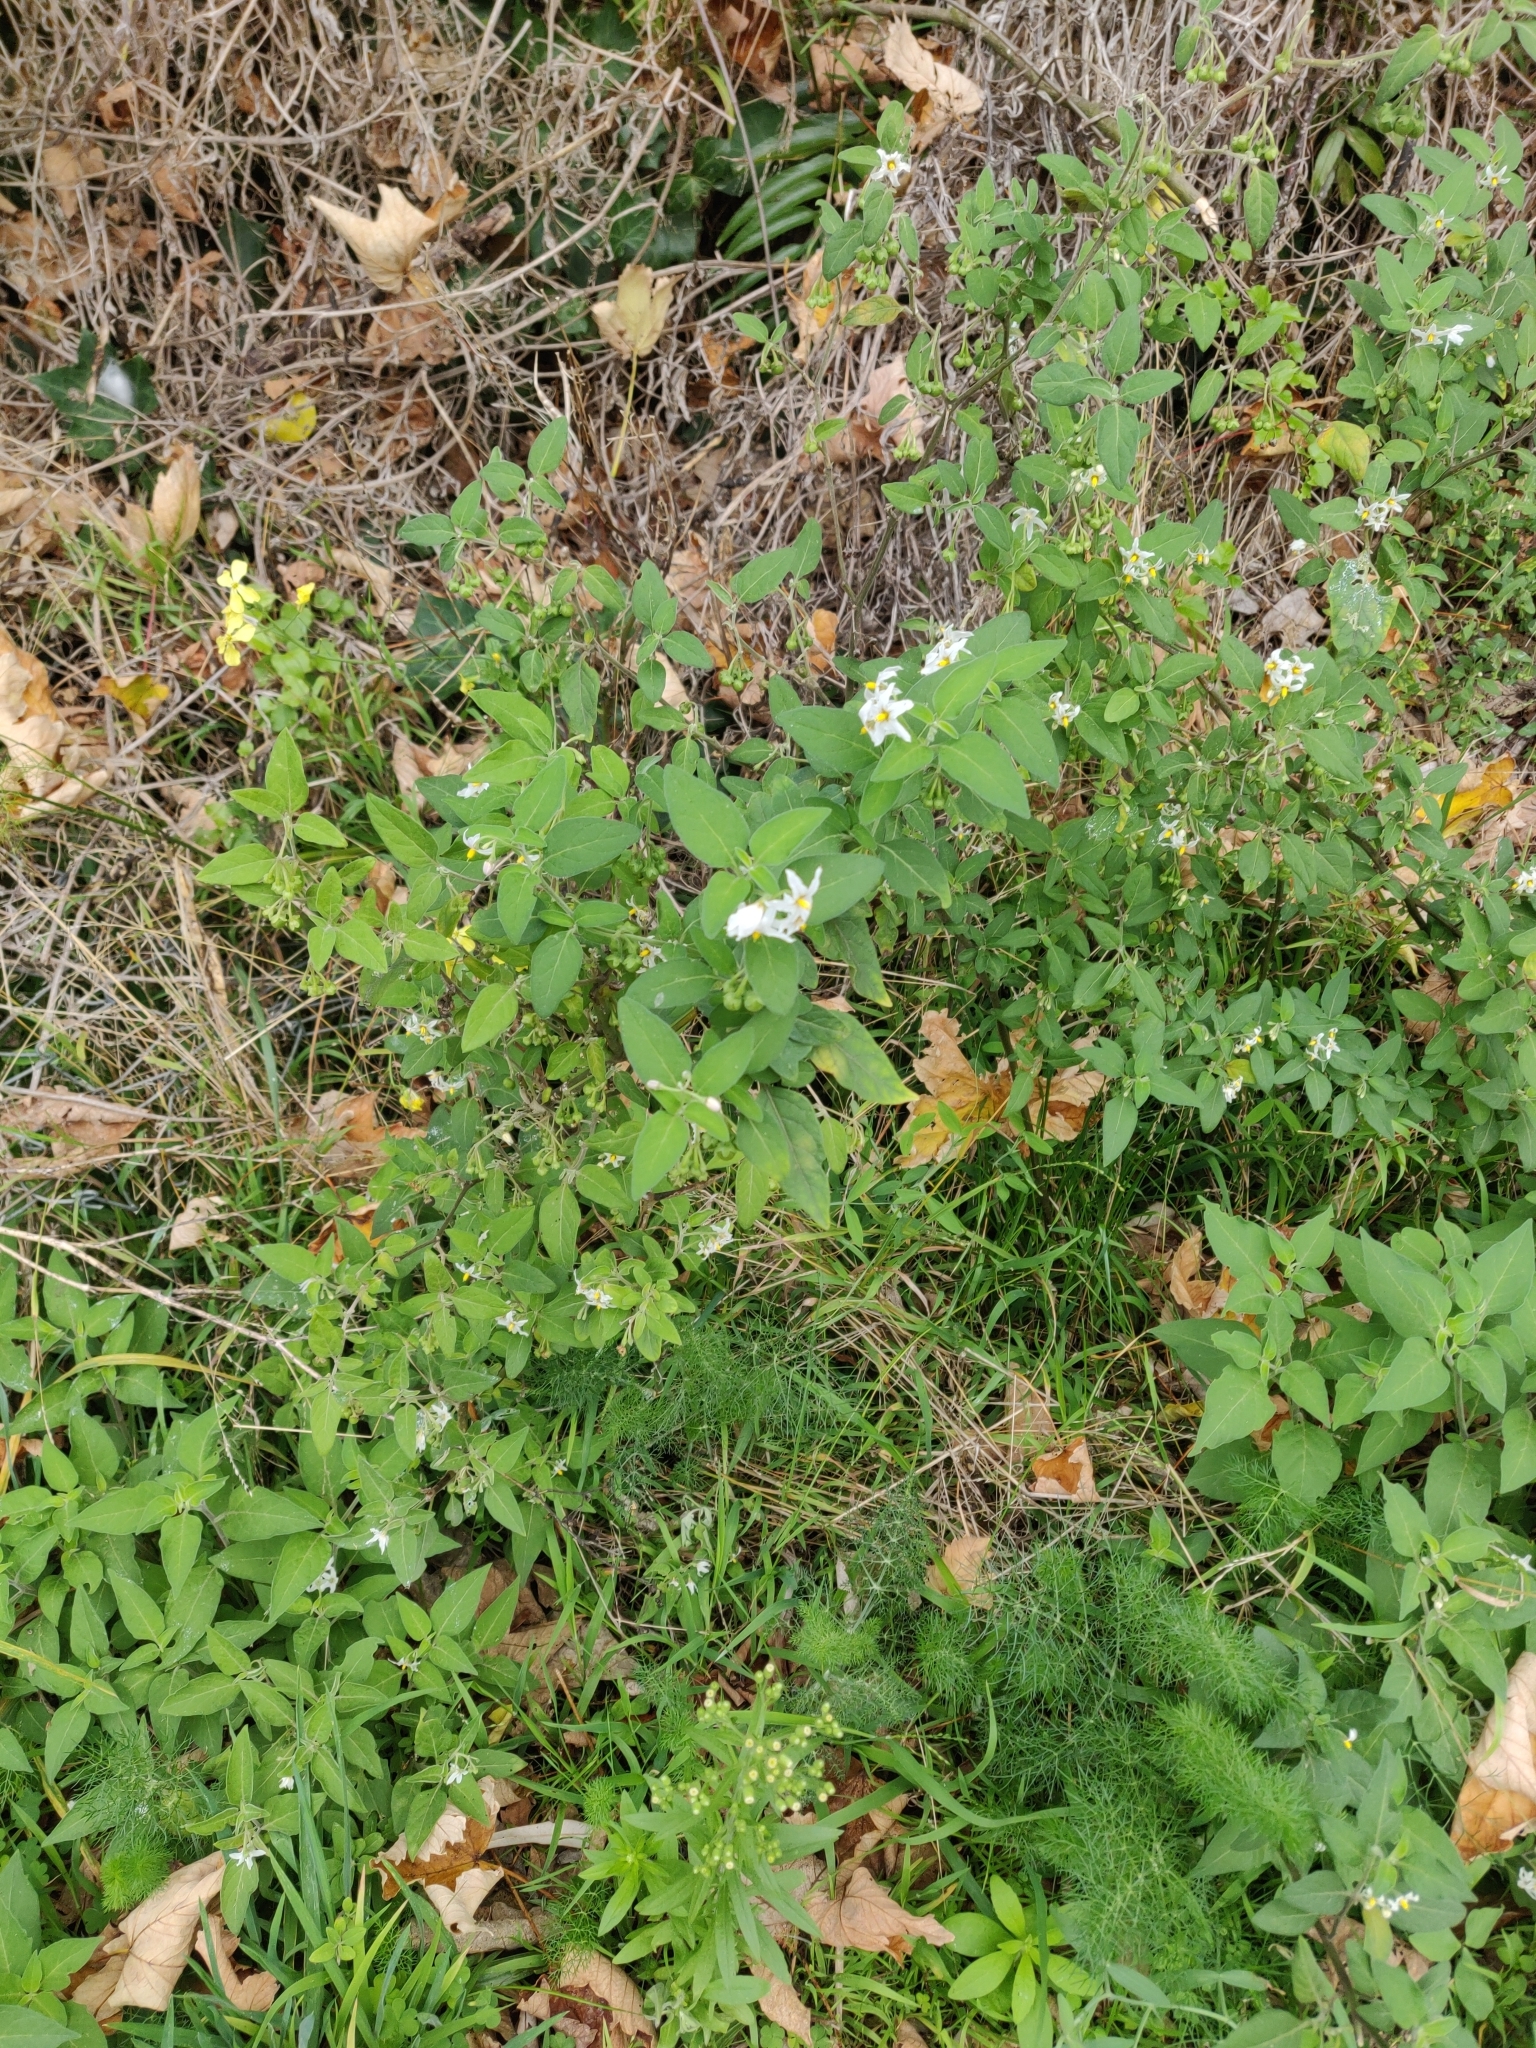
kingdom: Plantae
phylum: Tracheophyta
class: Magnoliopsida
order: Solanales
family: Solanaceae
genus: Solanum
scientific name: Solanum chenopodioides
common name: Tall nightshade
